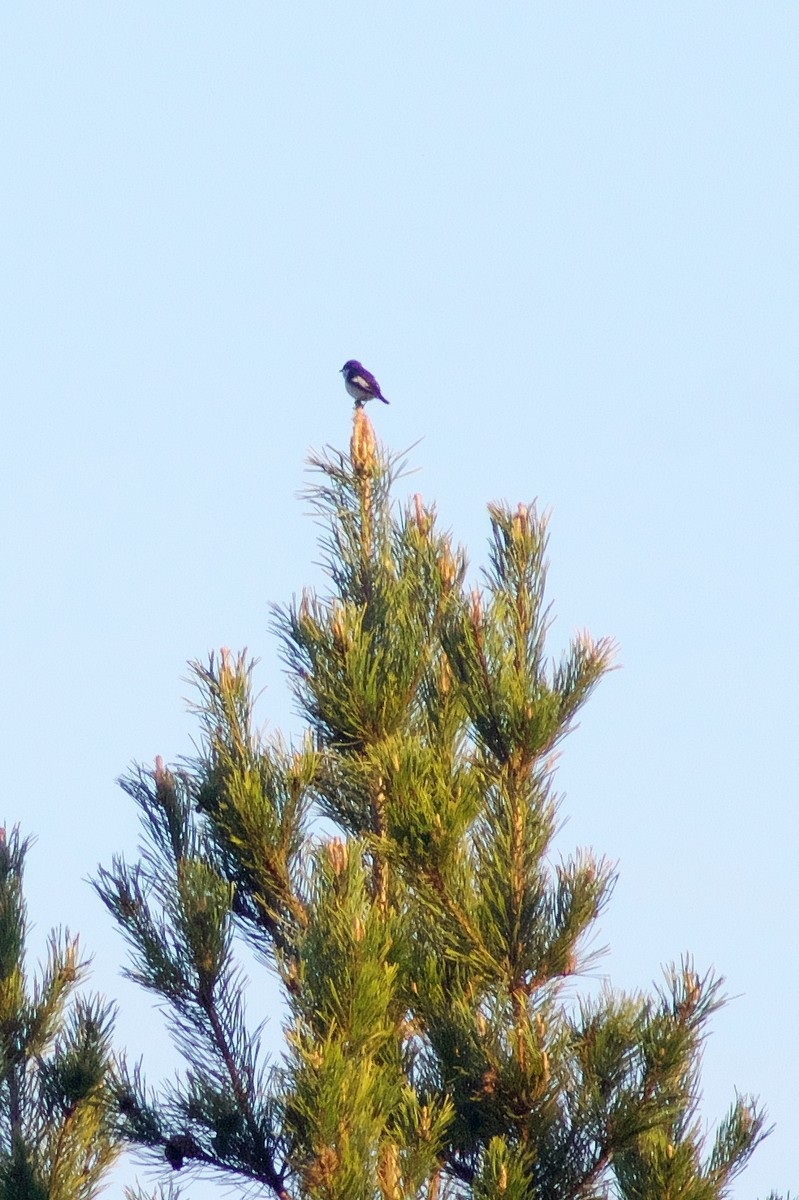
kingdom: Animalia
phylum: Chordata
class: Aves
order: Passeriformes
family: Muscicapidae
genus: Ficedula
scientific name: Ficedula hypoleuca
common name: European pied flycatcher
